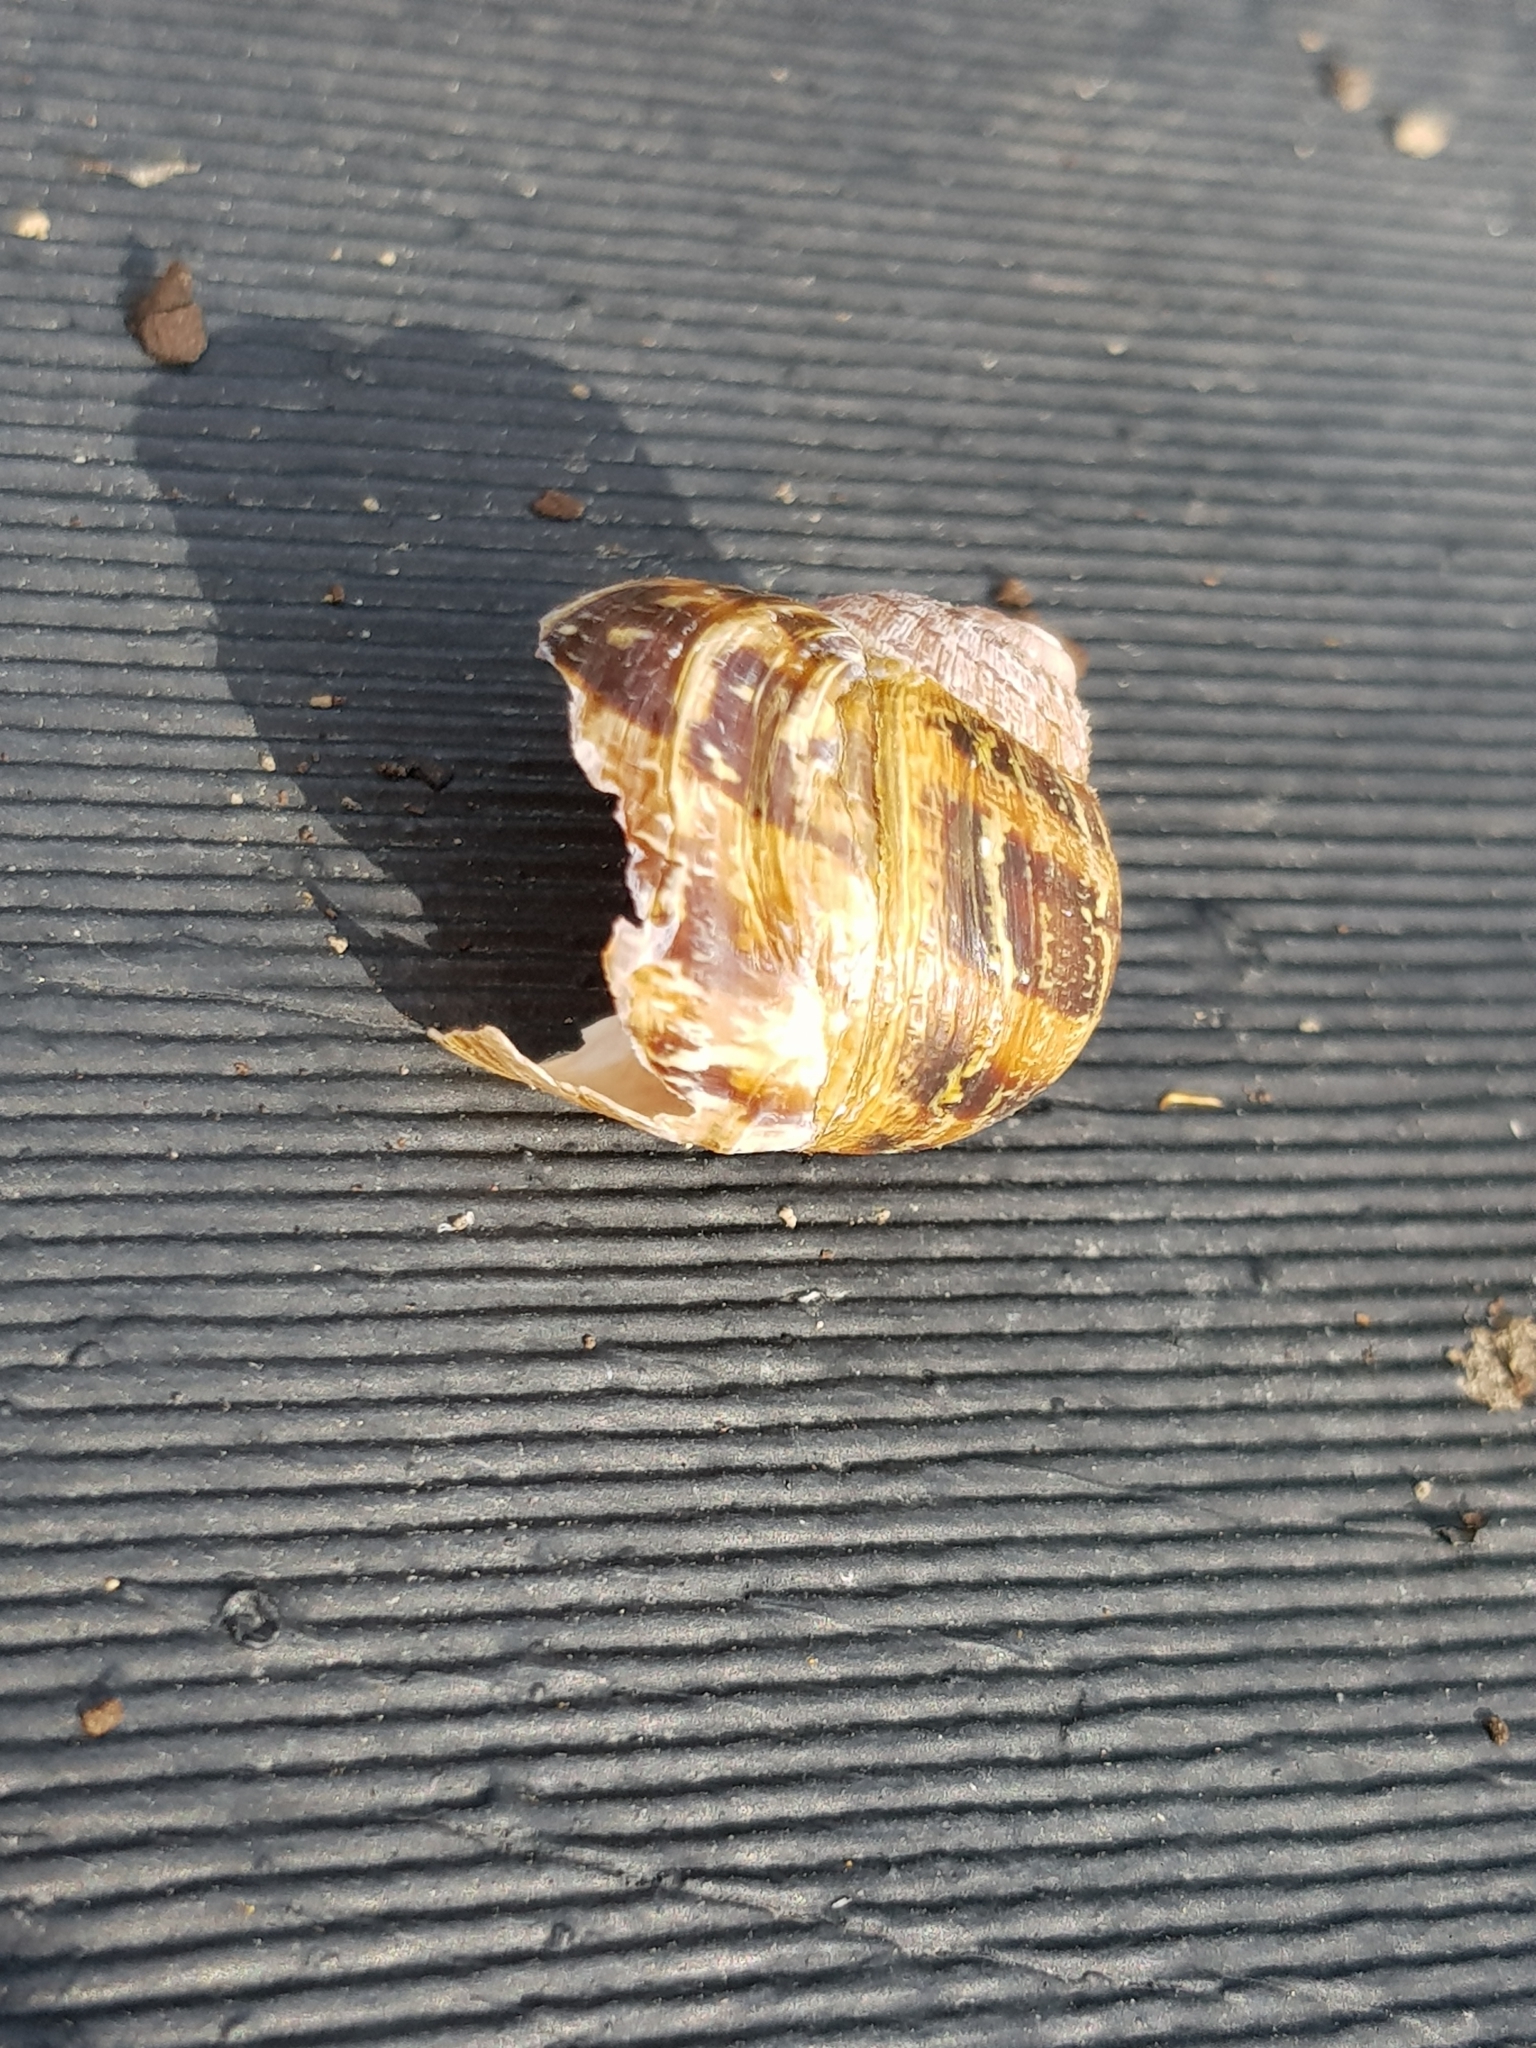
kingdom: Animalia
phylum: Mollusca
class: Gastropoda
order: Stylommatophora
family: Helicidae
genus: Cornu
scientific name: Cornu aspersum
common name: Brown garden snail
